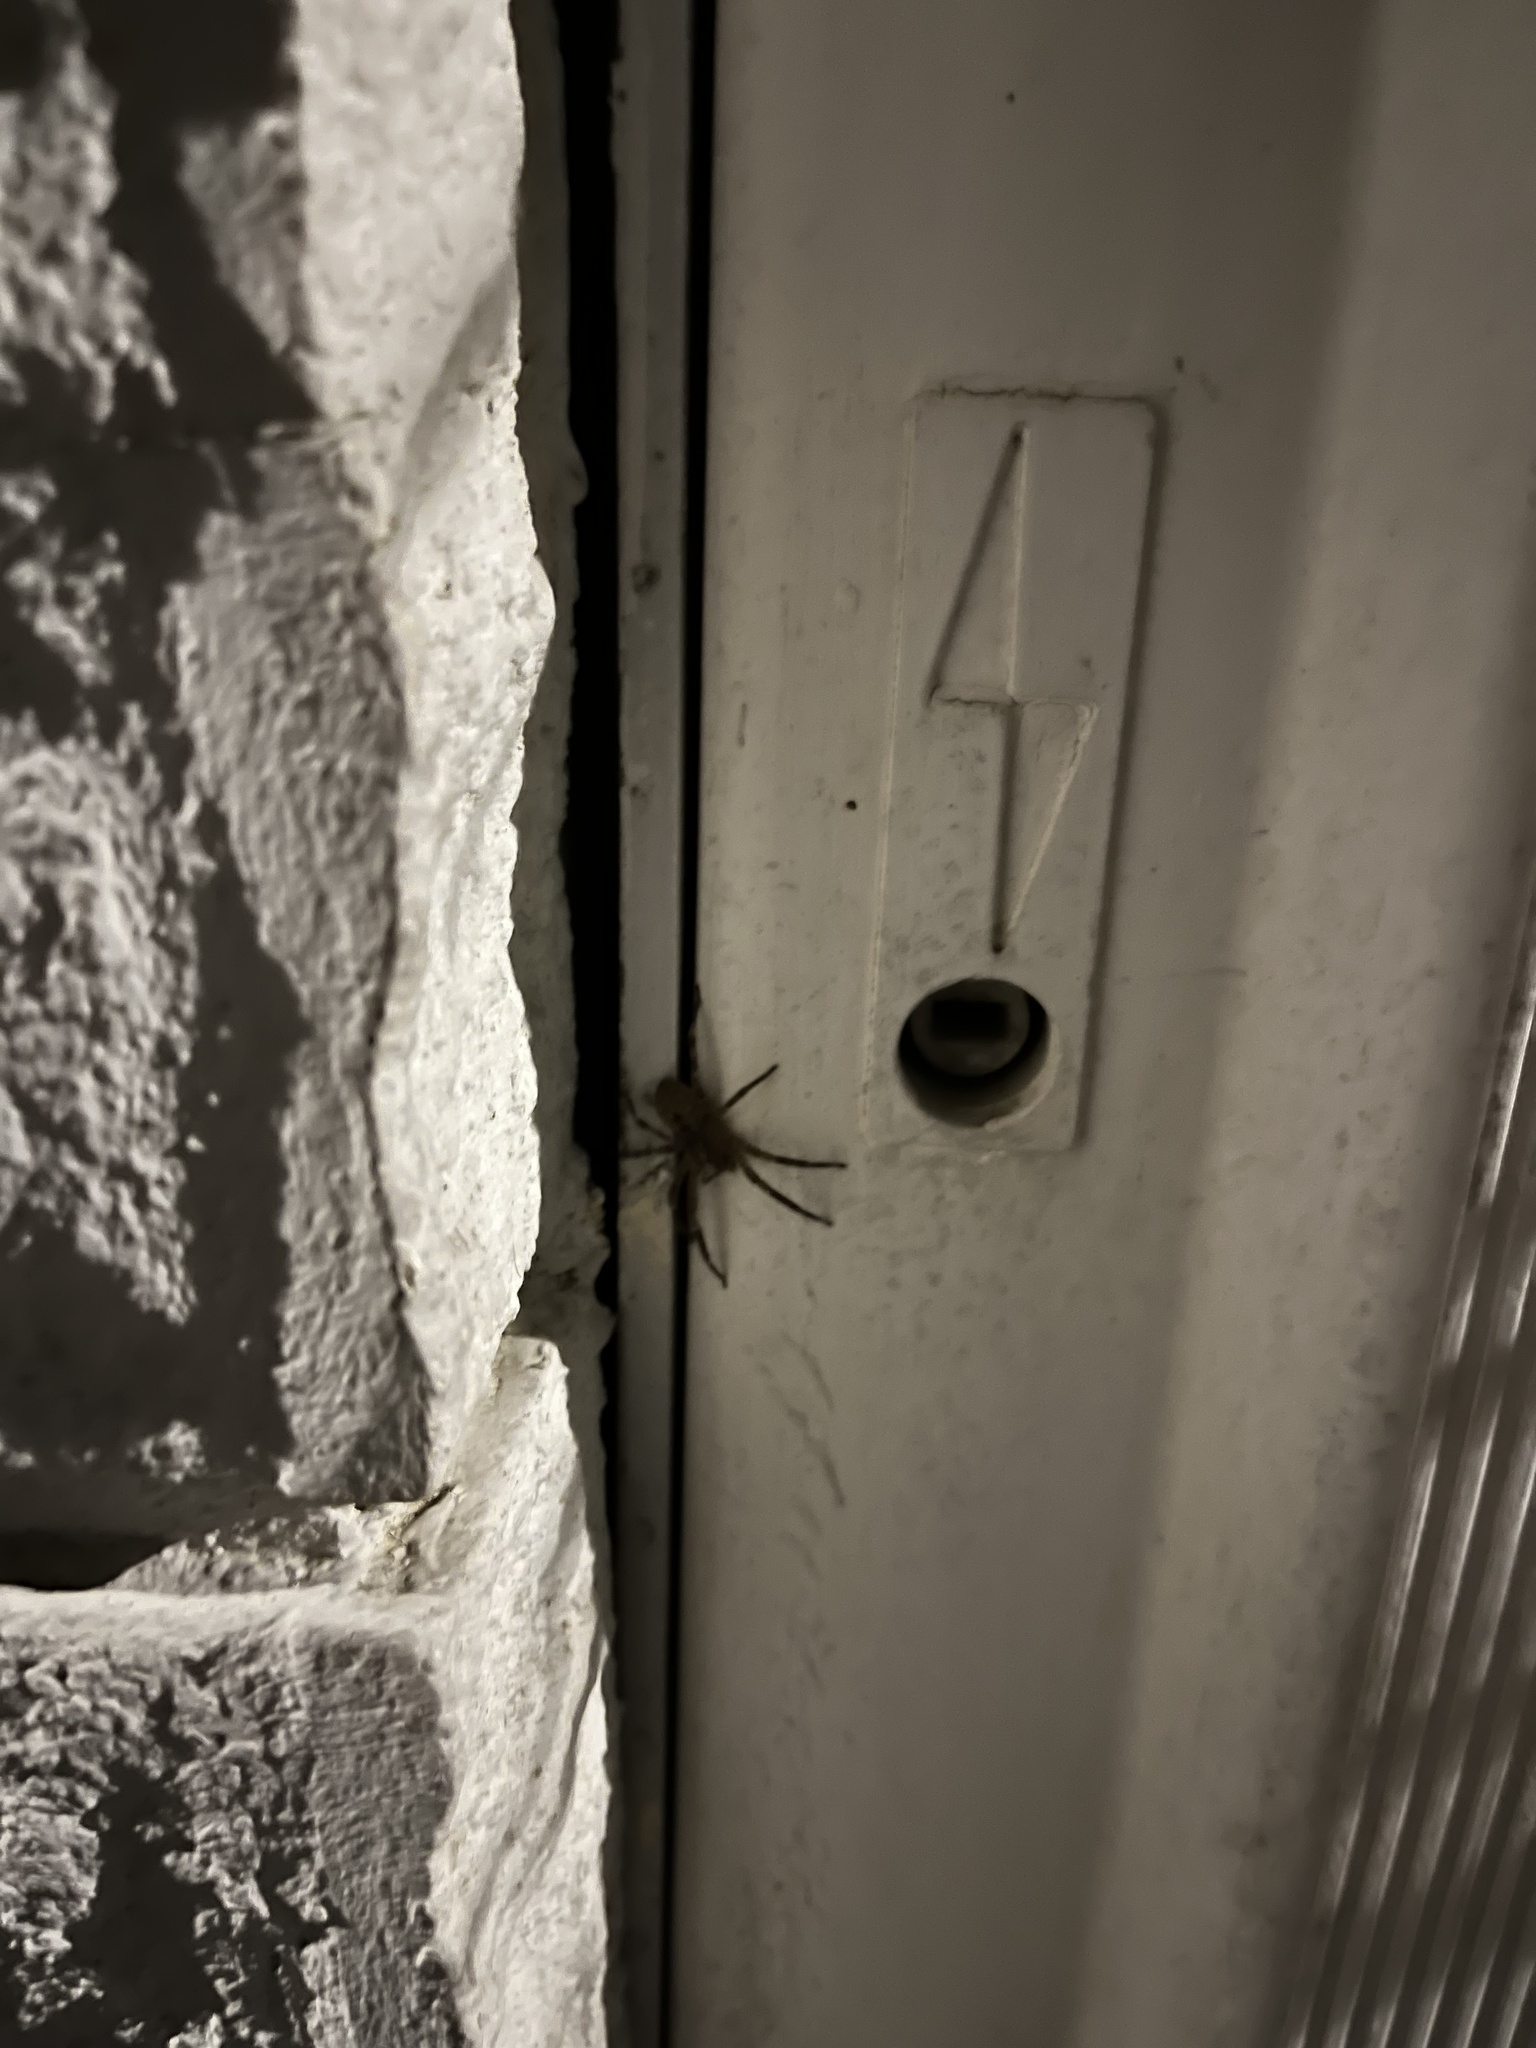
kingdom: Animalia
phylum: Arthropoda
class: Arachnida
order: Araneae
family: Zoropsidae
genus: Zoropsis
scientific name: Zoropsis spinimana
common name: Zoropsid spider
